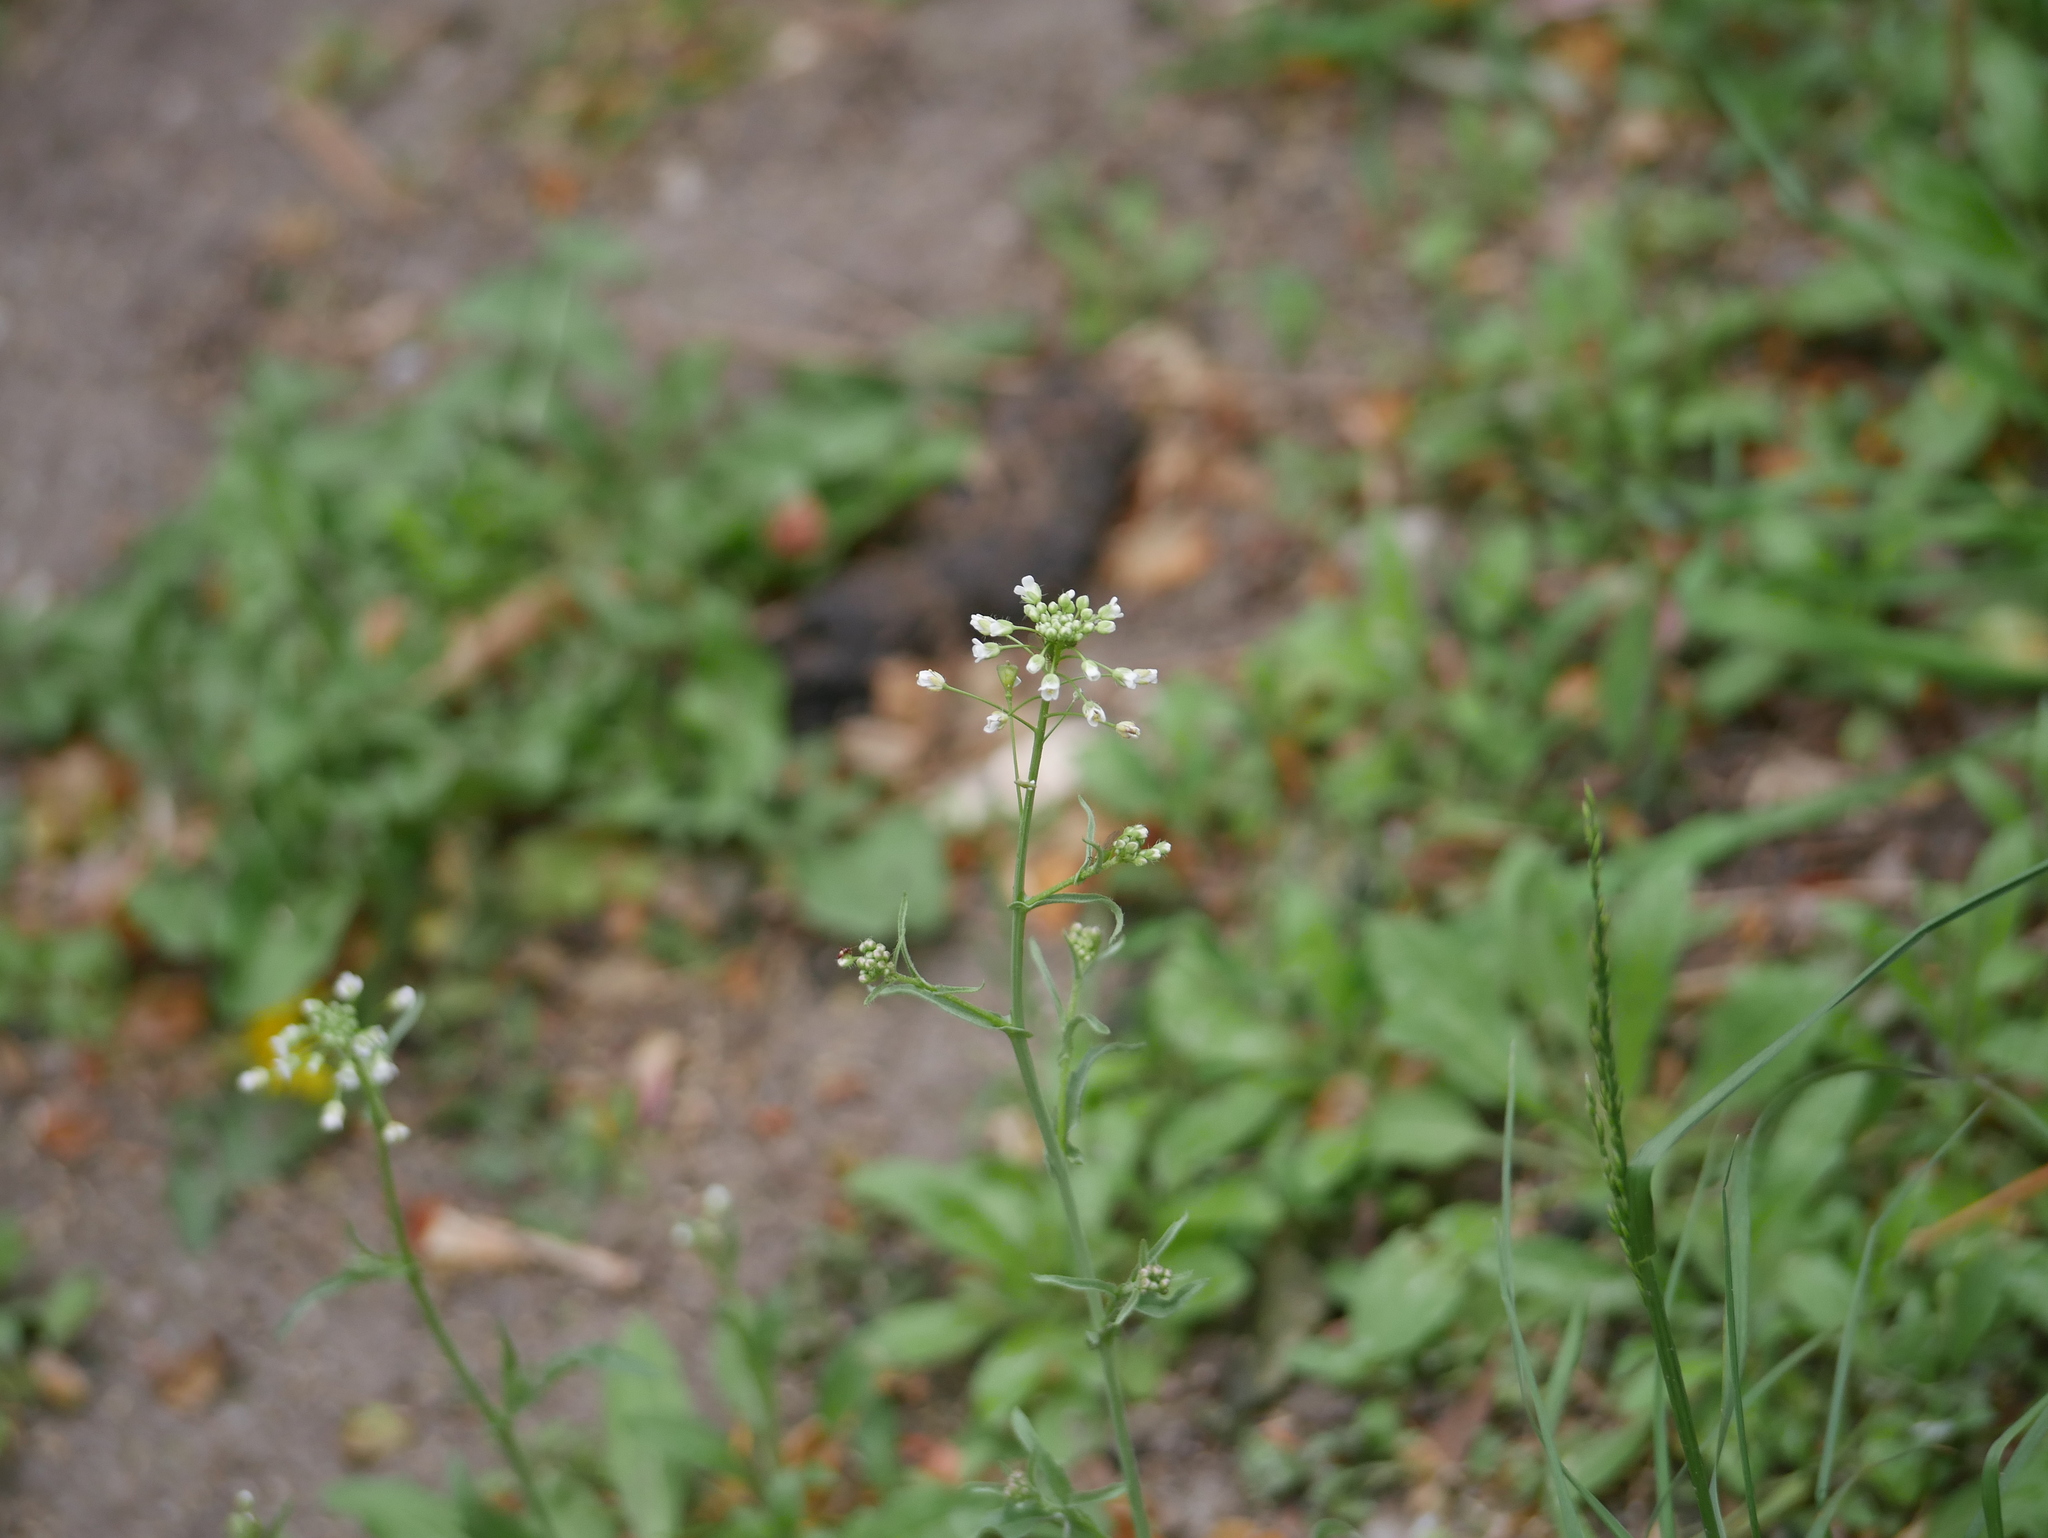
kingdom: Plantae
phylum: Tracheophyta
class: Magnoliopsida
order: Brassicales
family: Brassicaceae
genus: Capsella
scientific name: Capsella bursa-pastoris
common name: Shepherd's purse
